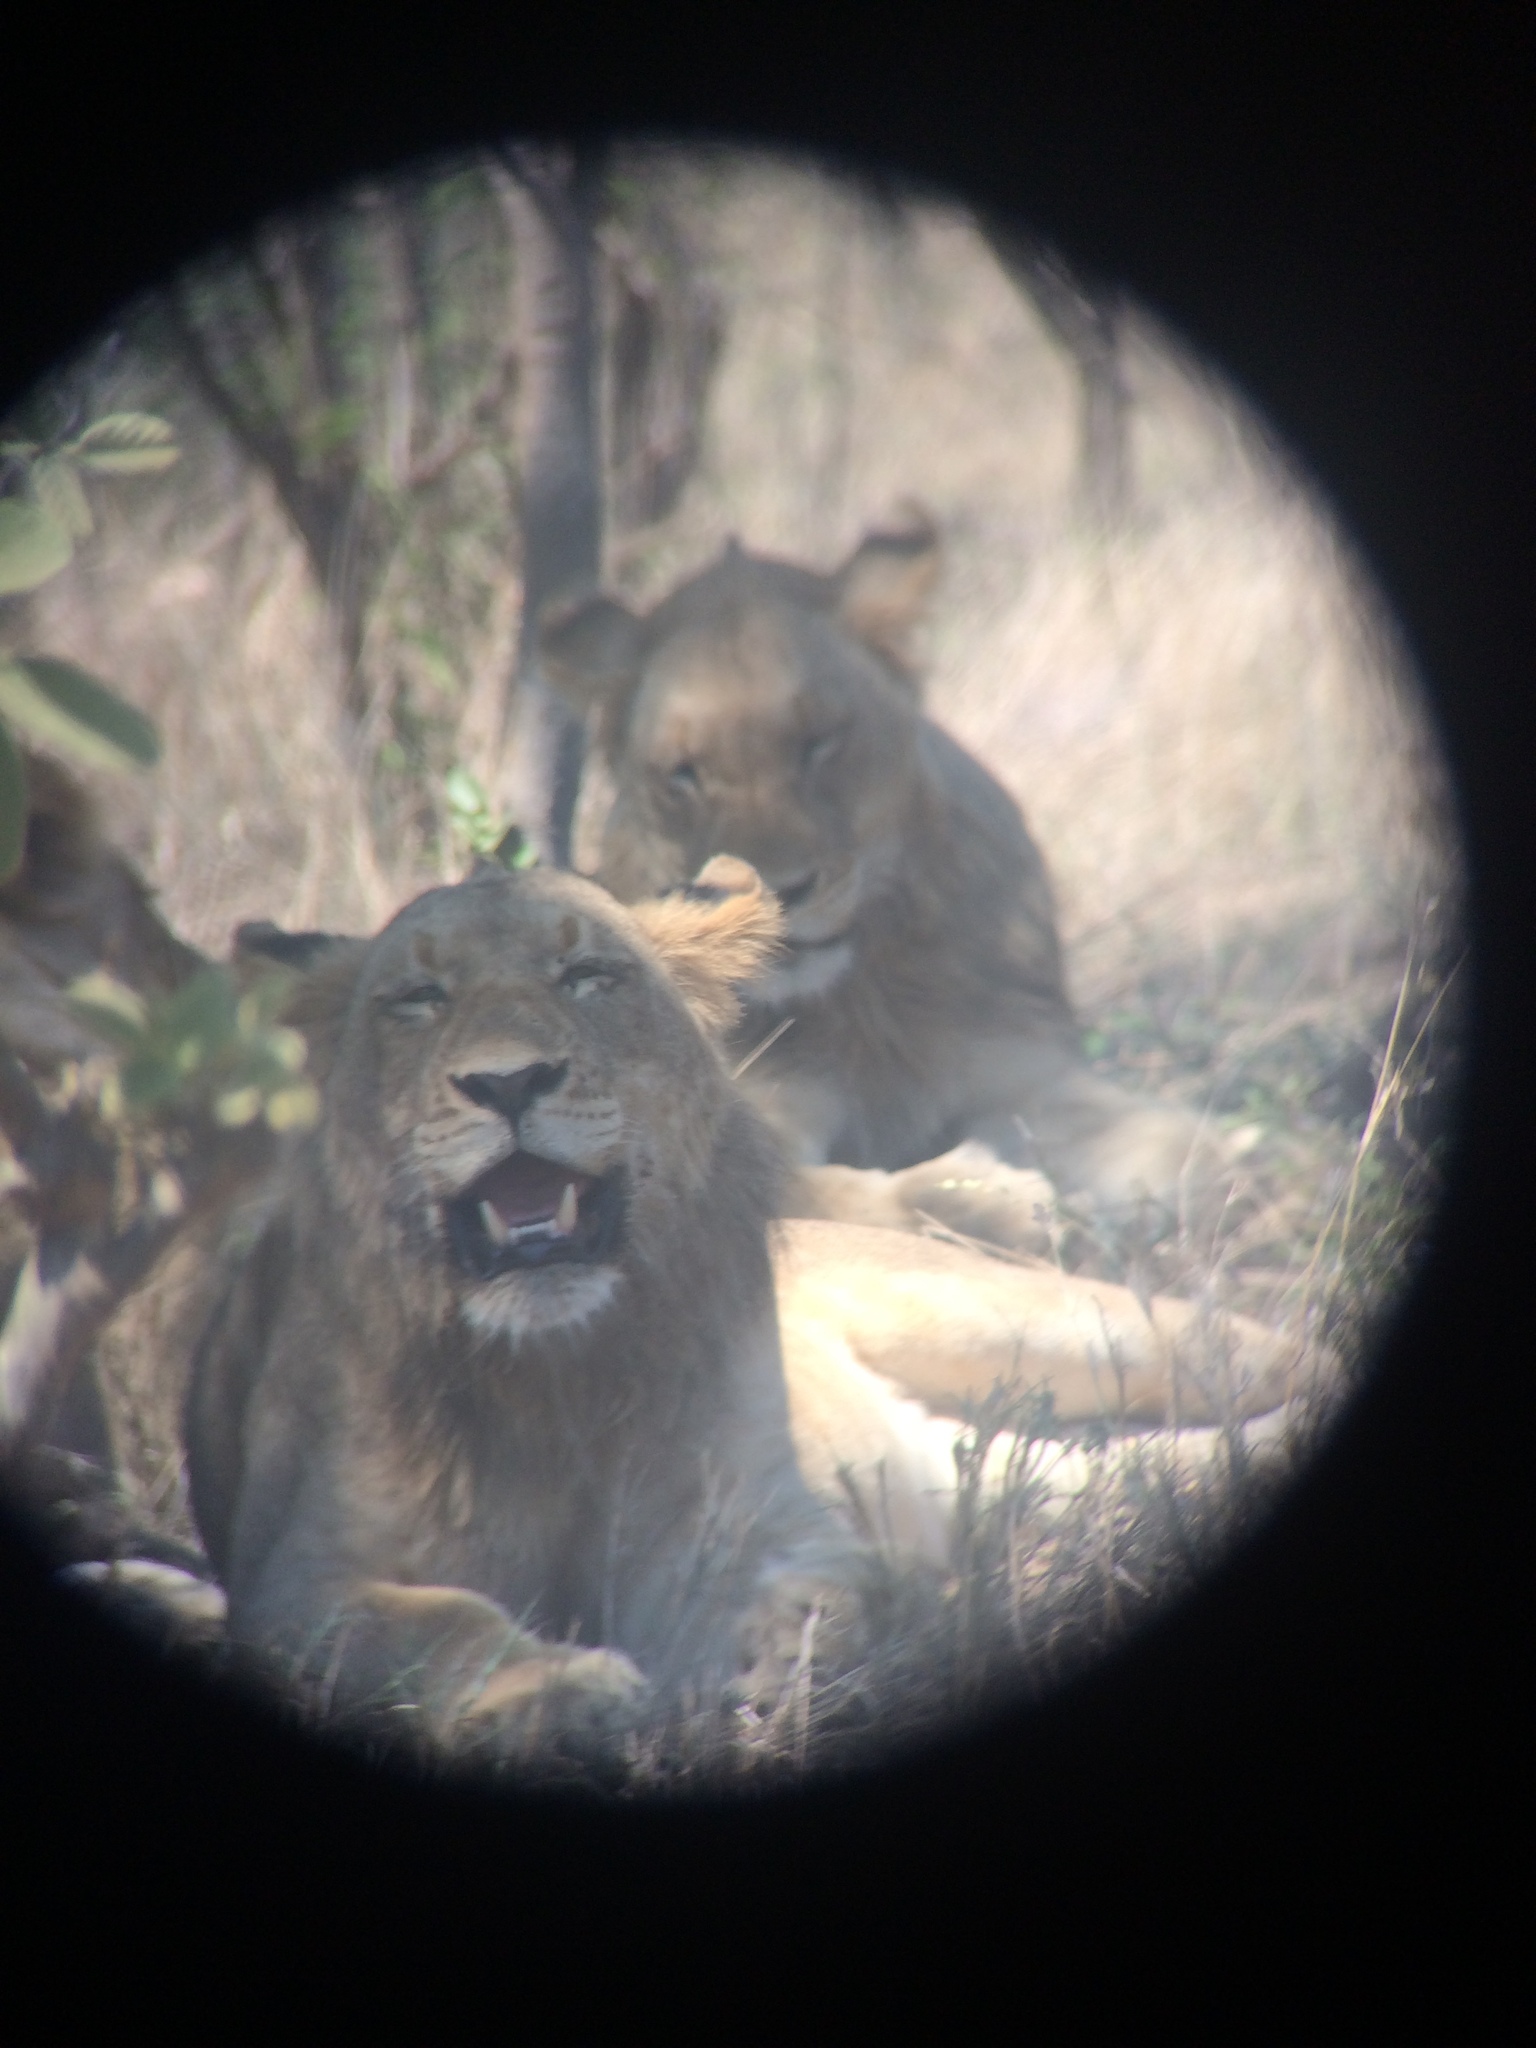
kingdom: Animalia
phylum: Chordata
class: Mammalia
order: Carnivora
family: Felidae
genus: Panthera
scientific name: Panthera leo
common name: Lion
